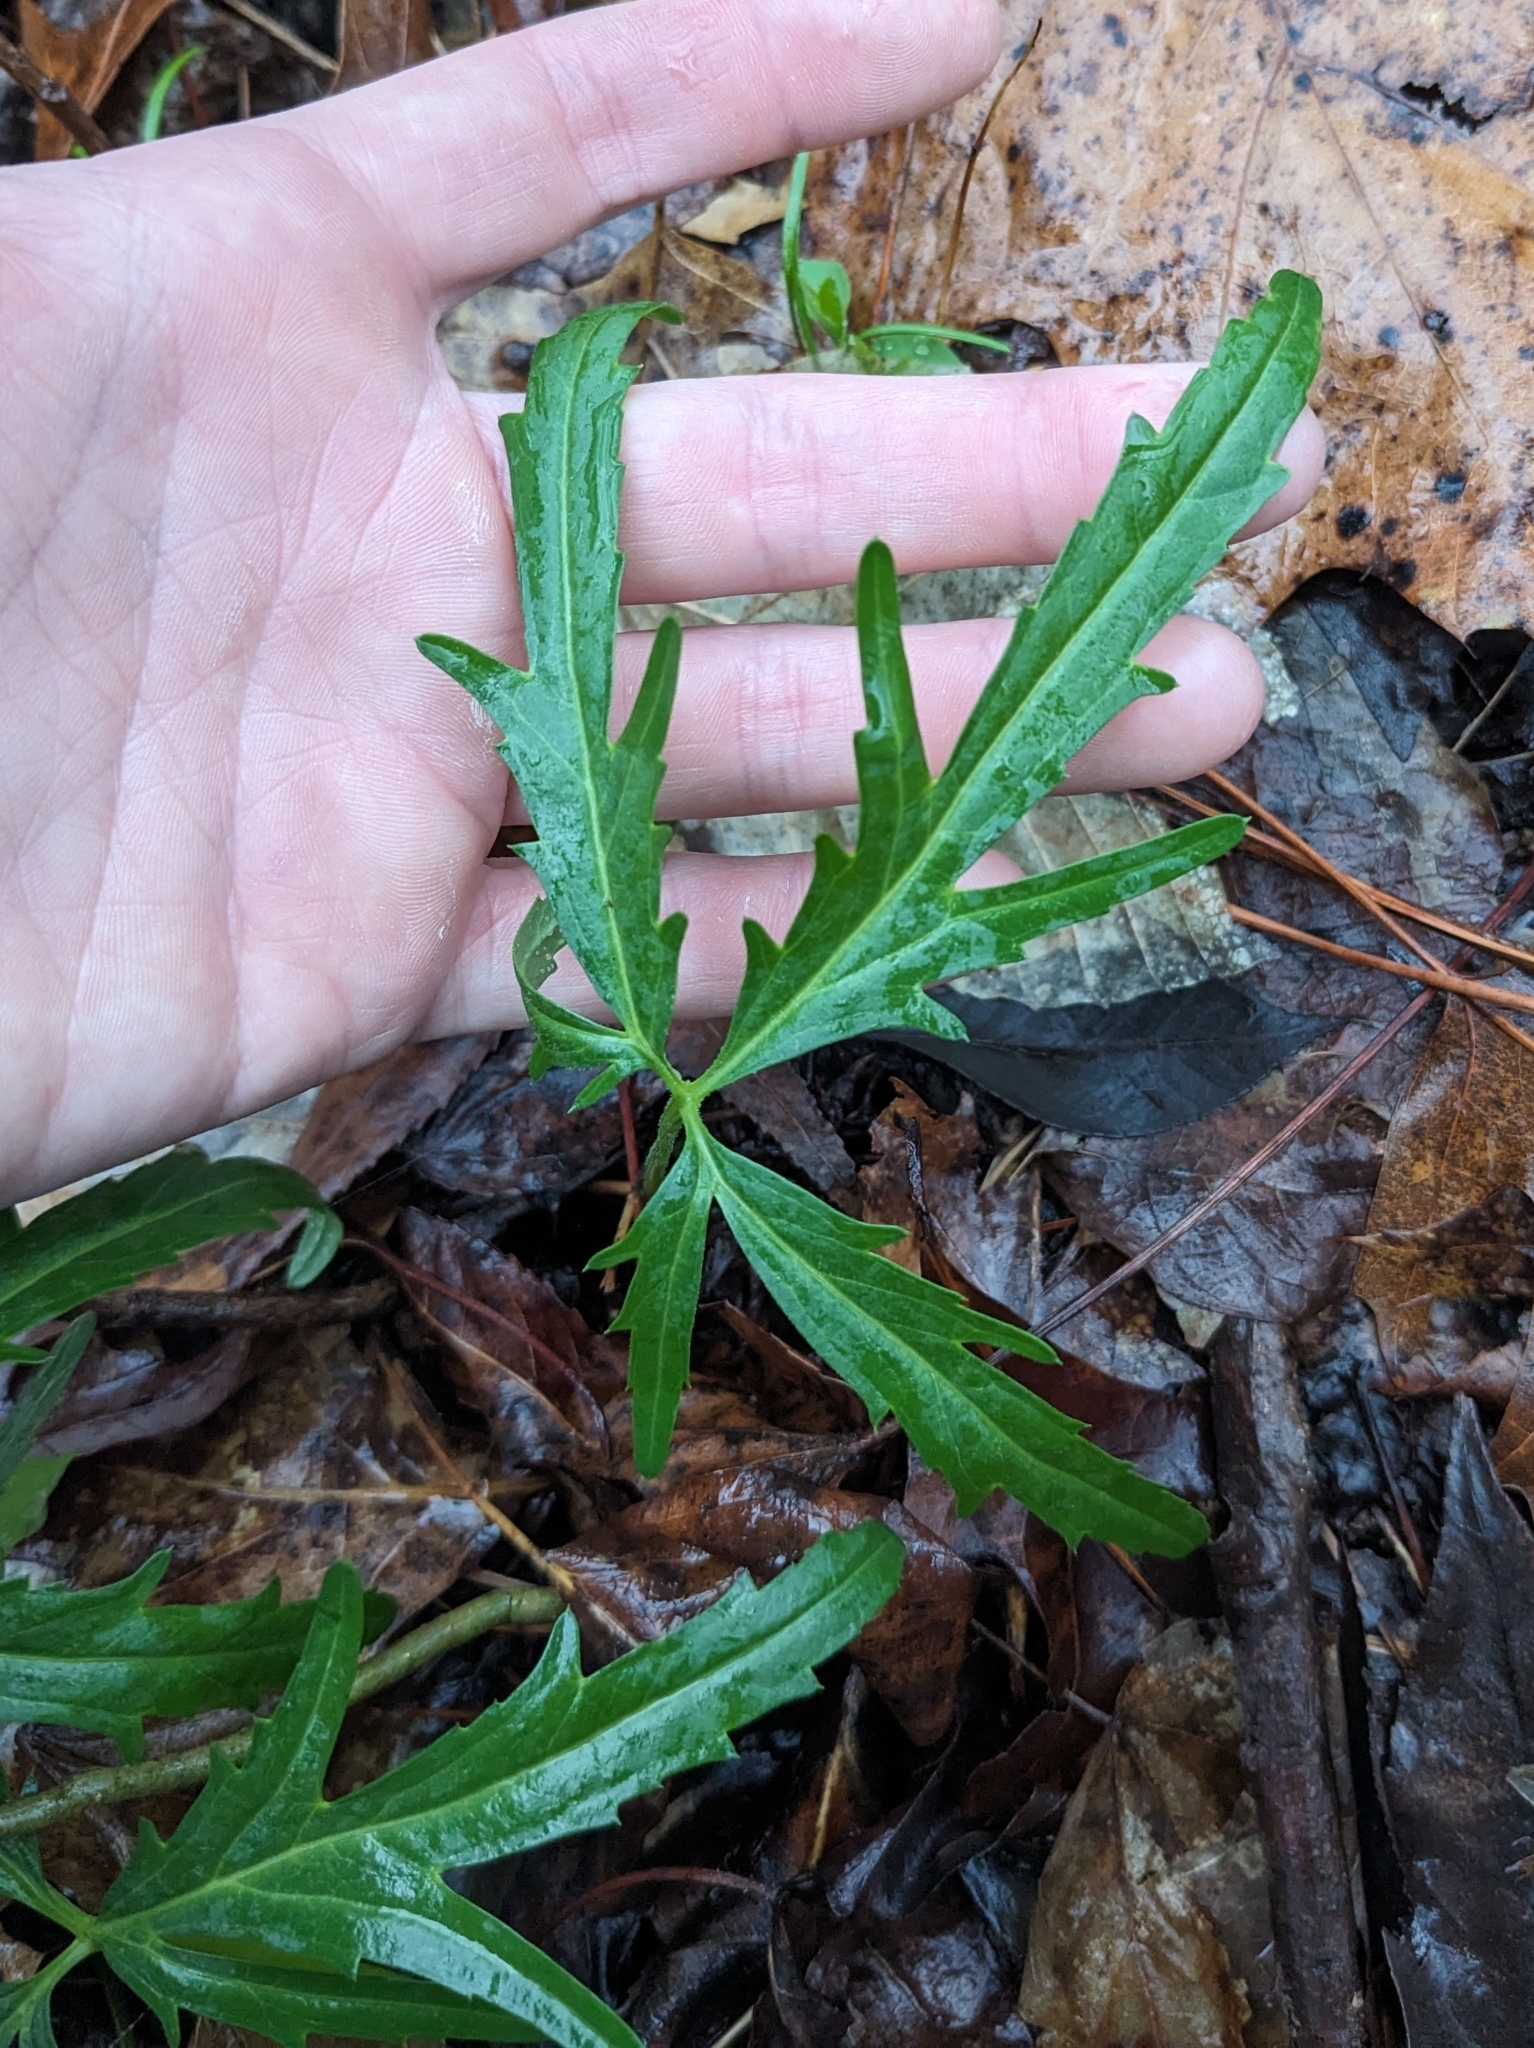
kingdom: Plantae
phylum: Tracheophyta
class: Magnoliopsida
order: Brassicales
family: Brassicaceae
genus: Cardamine
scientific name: Cardamine concatenata
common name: Cut-leaf toothcup
